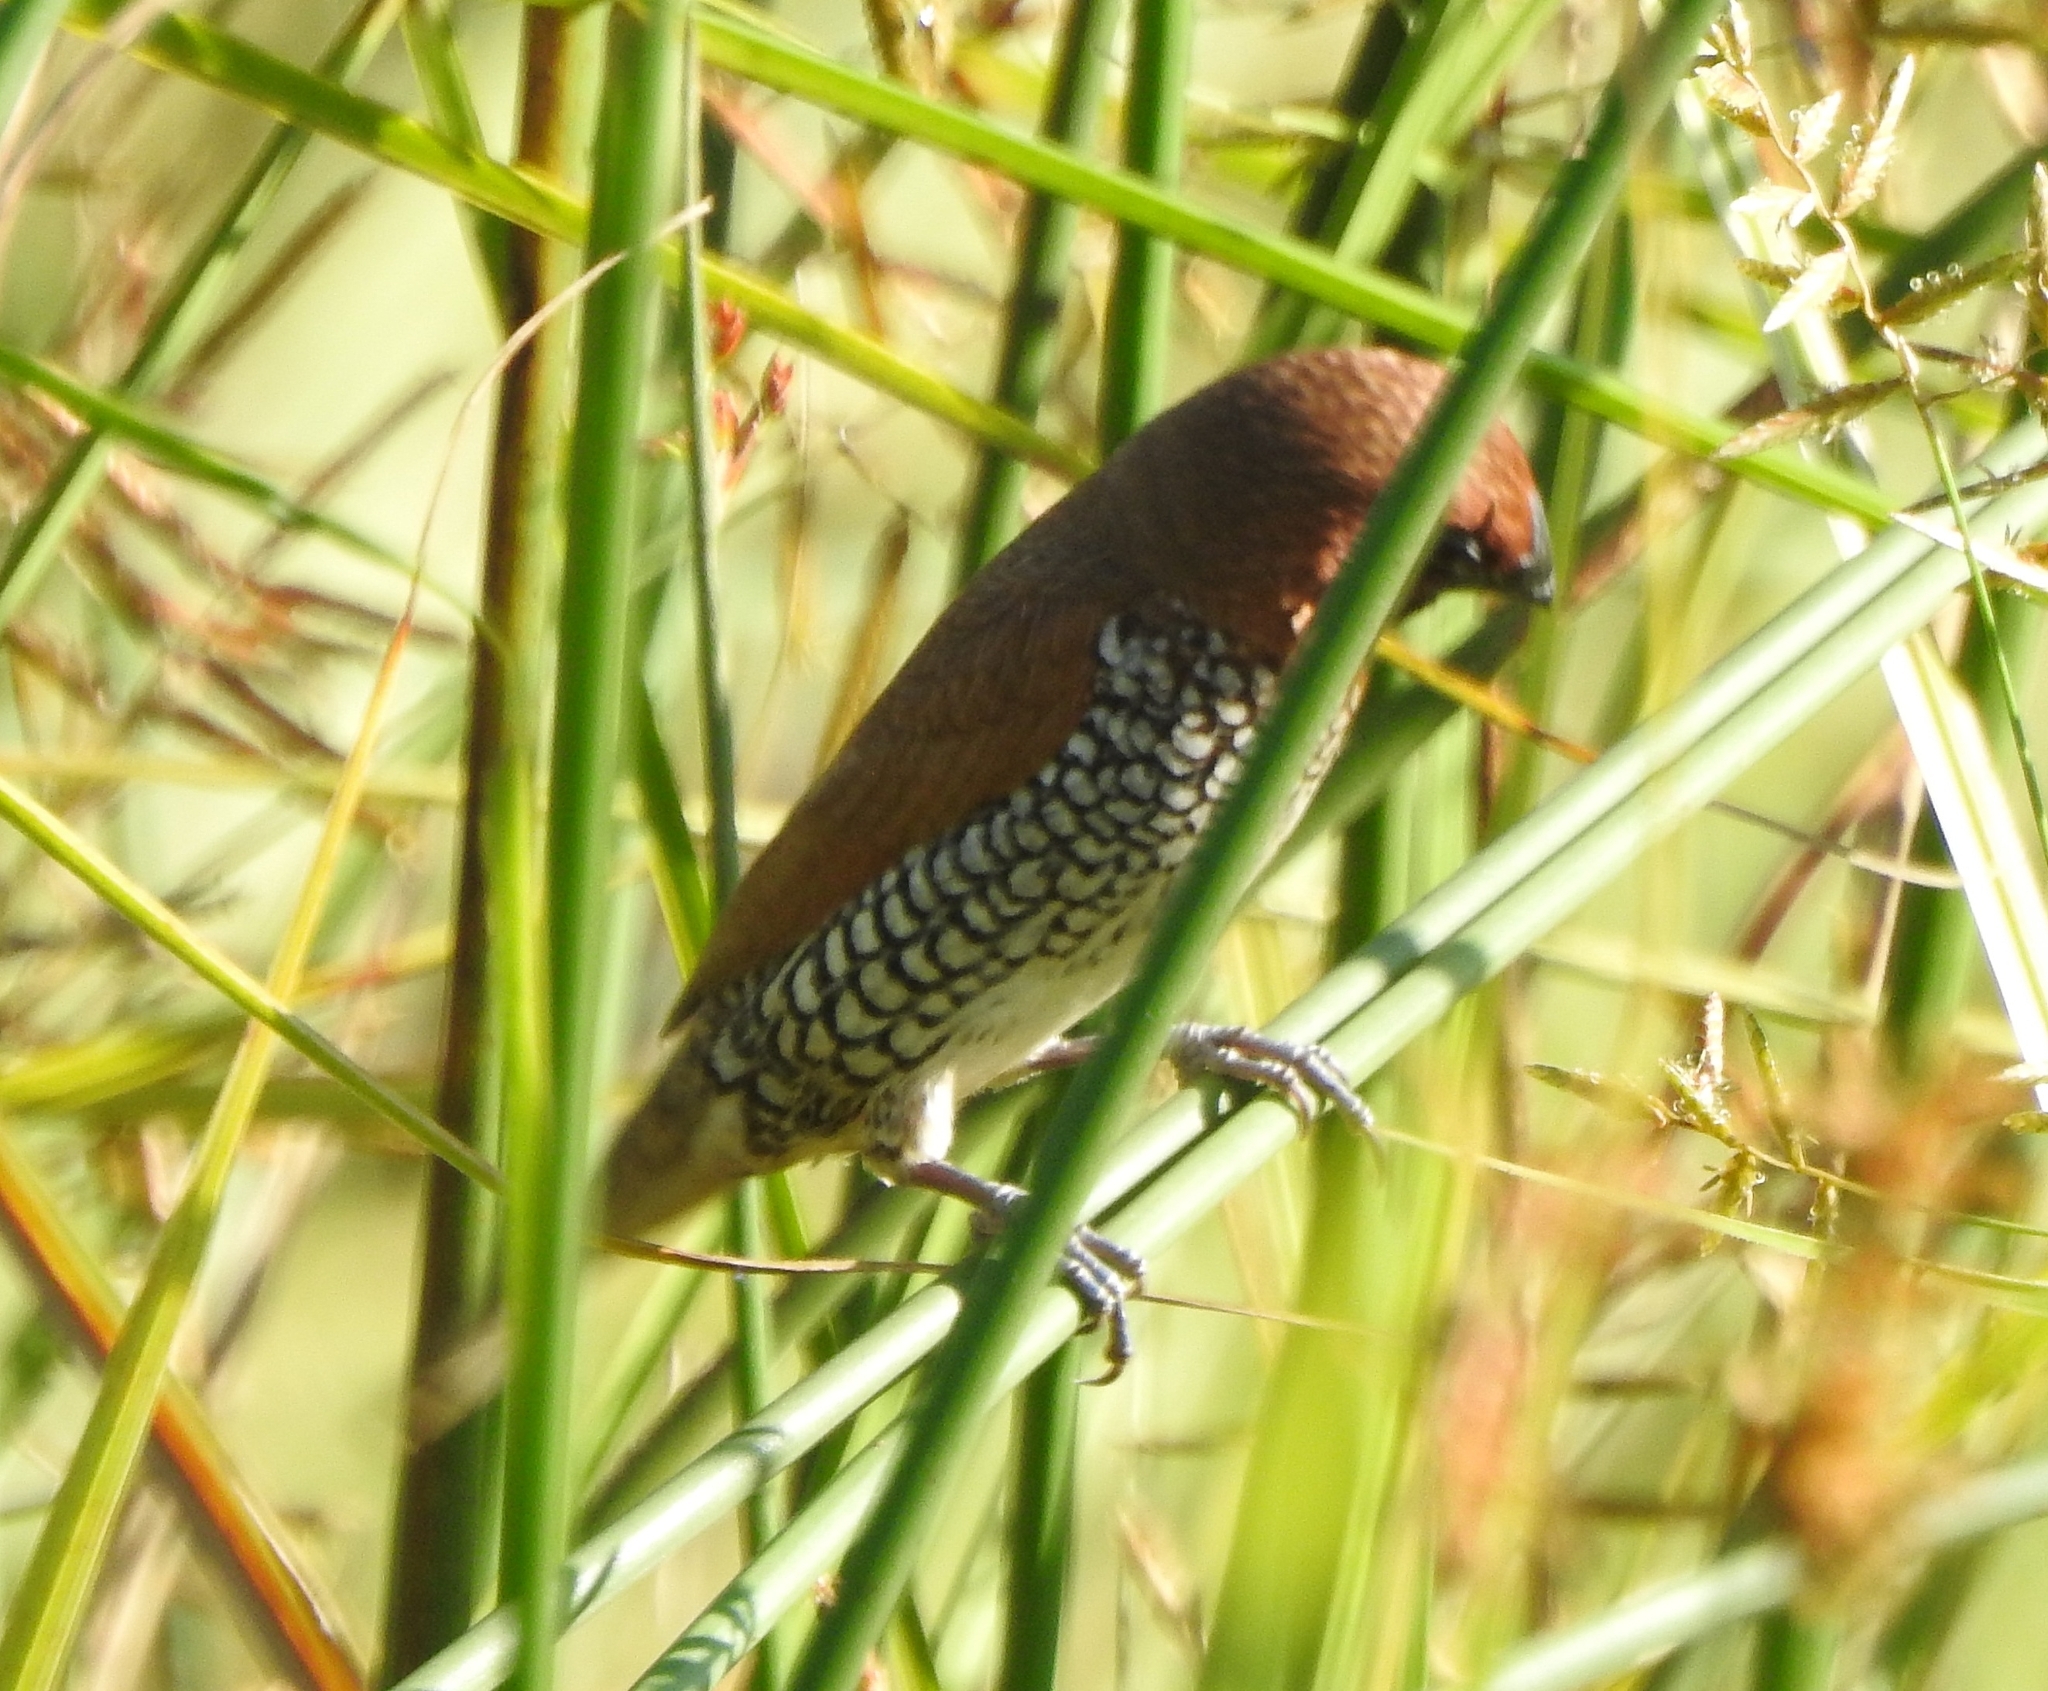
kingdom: Animalia
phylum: Chordata
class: Aves
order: Passeriformes
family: Estrildidae
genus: Lonchura
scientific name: Lonchura punctulata
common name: Scaly-breasted munia
